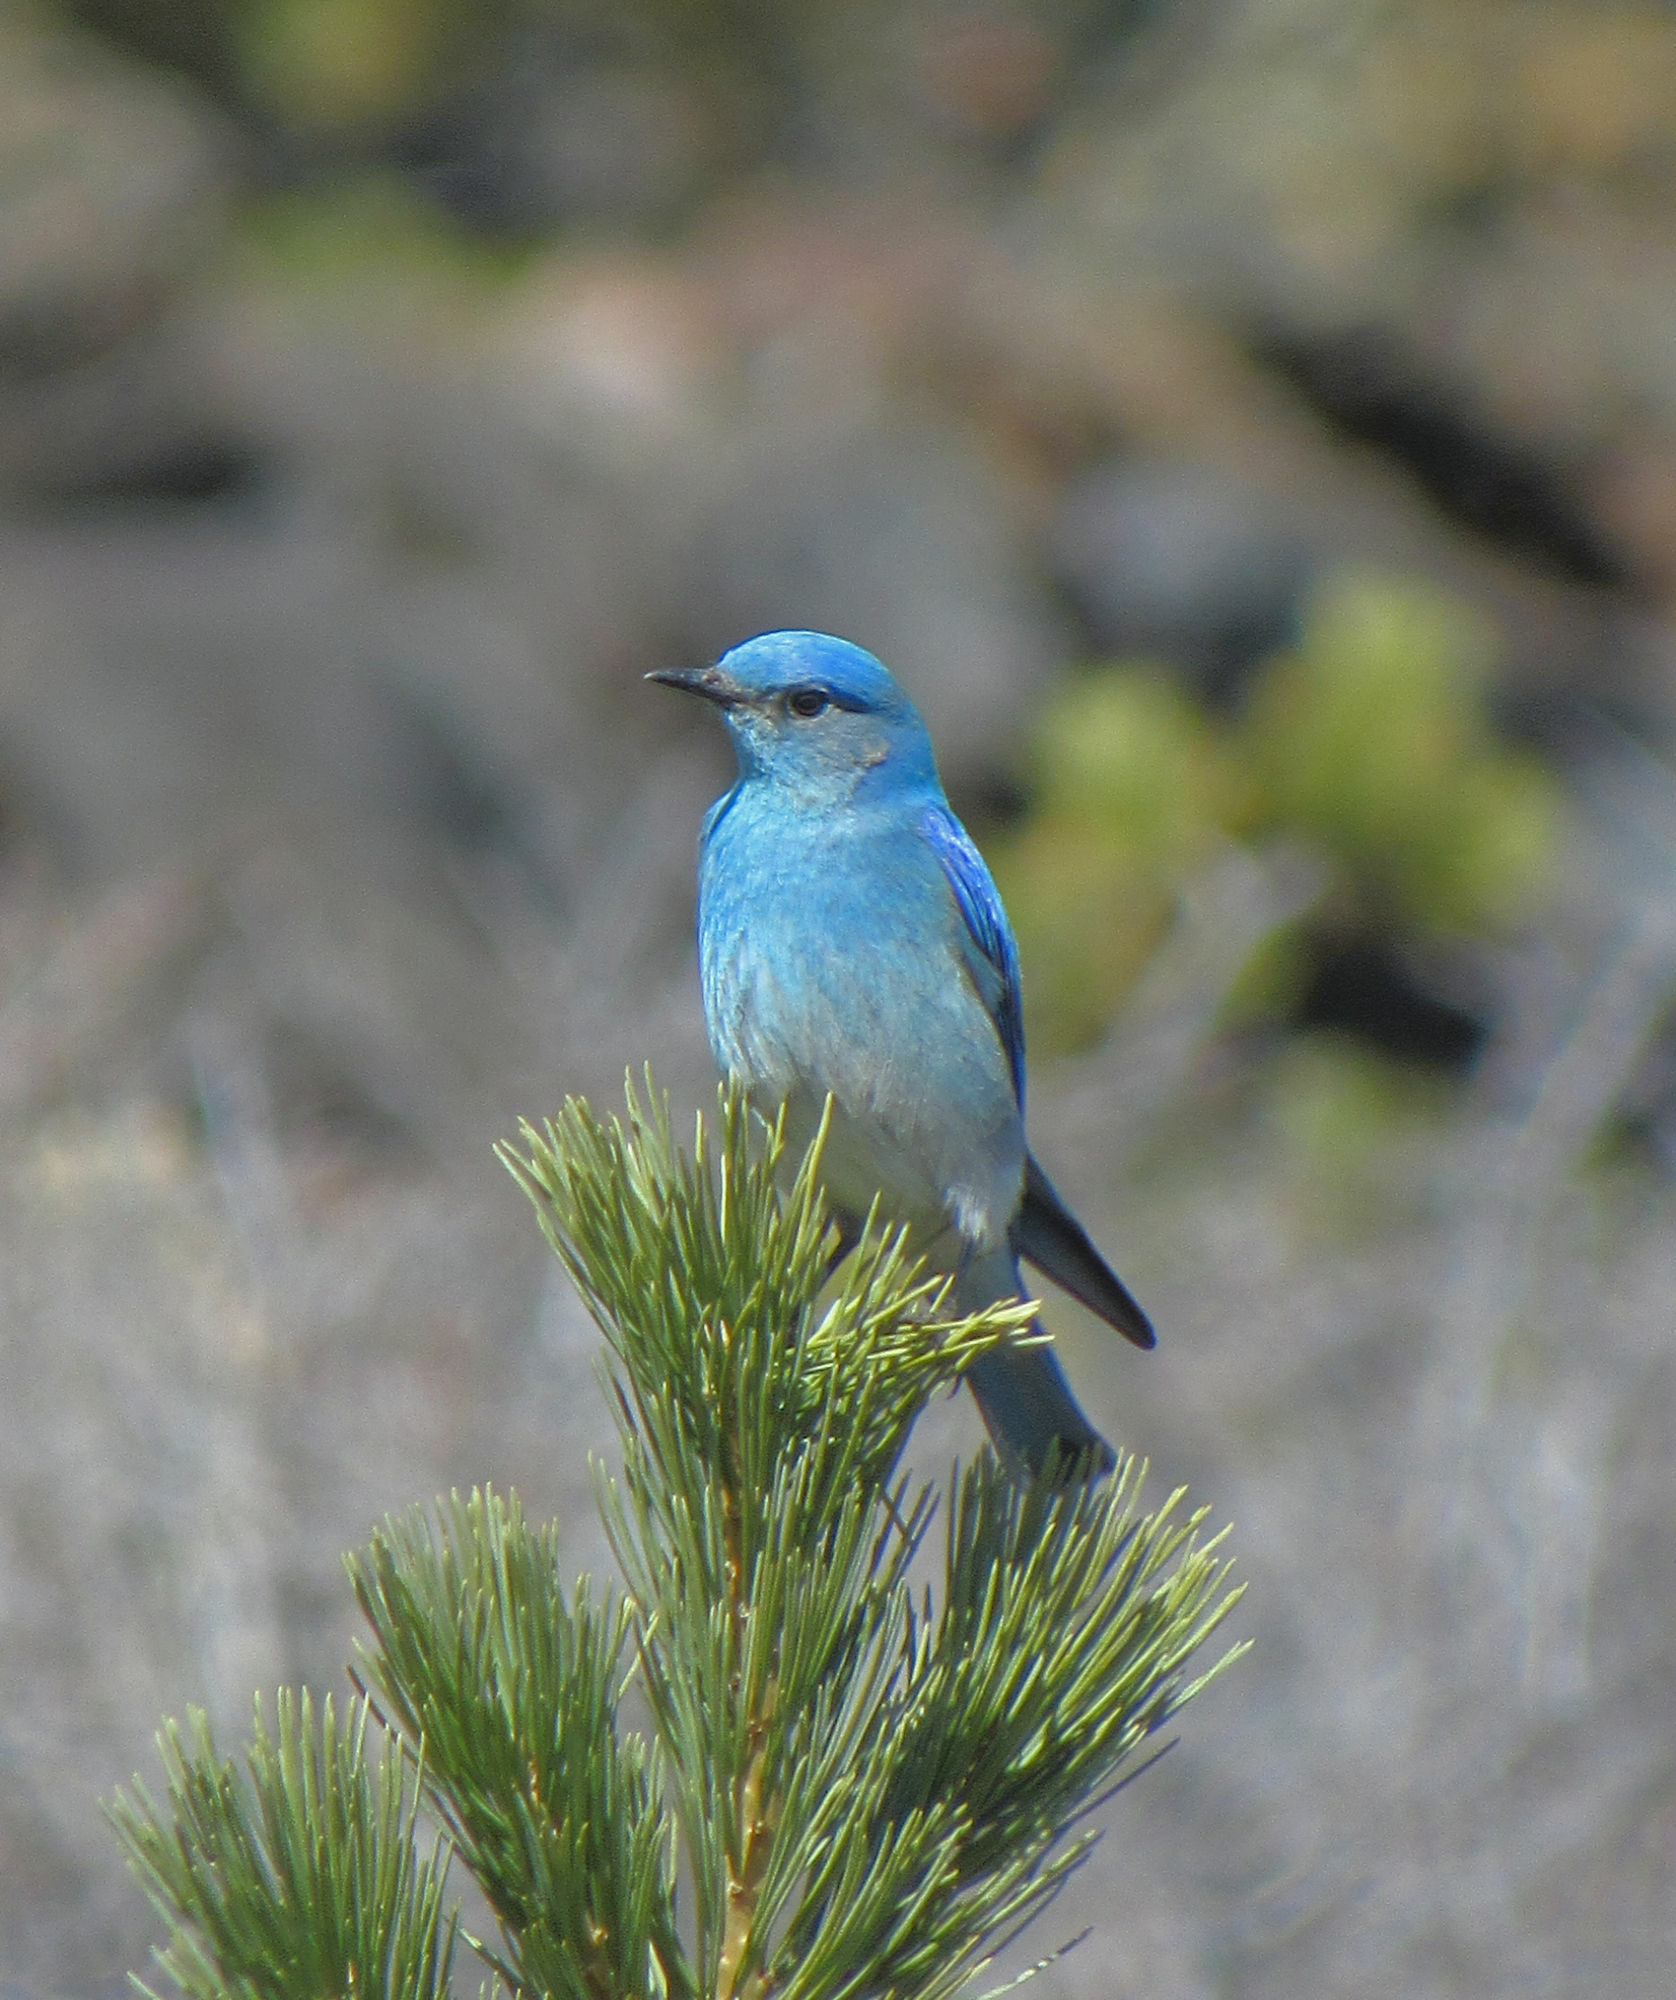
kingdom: Animalia
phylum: Chordata
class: Aves
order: Passeriformes
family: Turdidae
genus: Sialia
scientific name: Sialia currucoides
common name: Mountain bluebird
